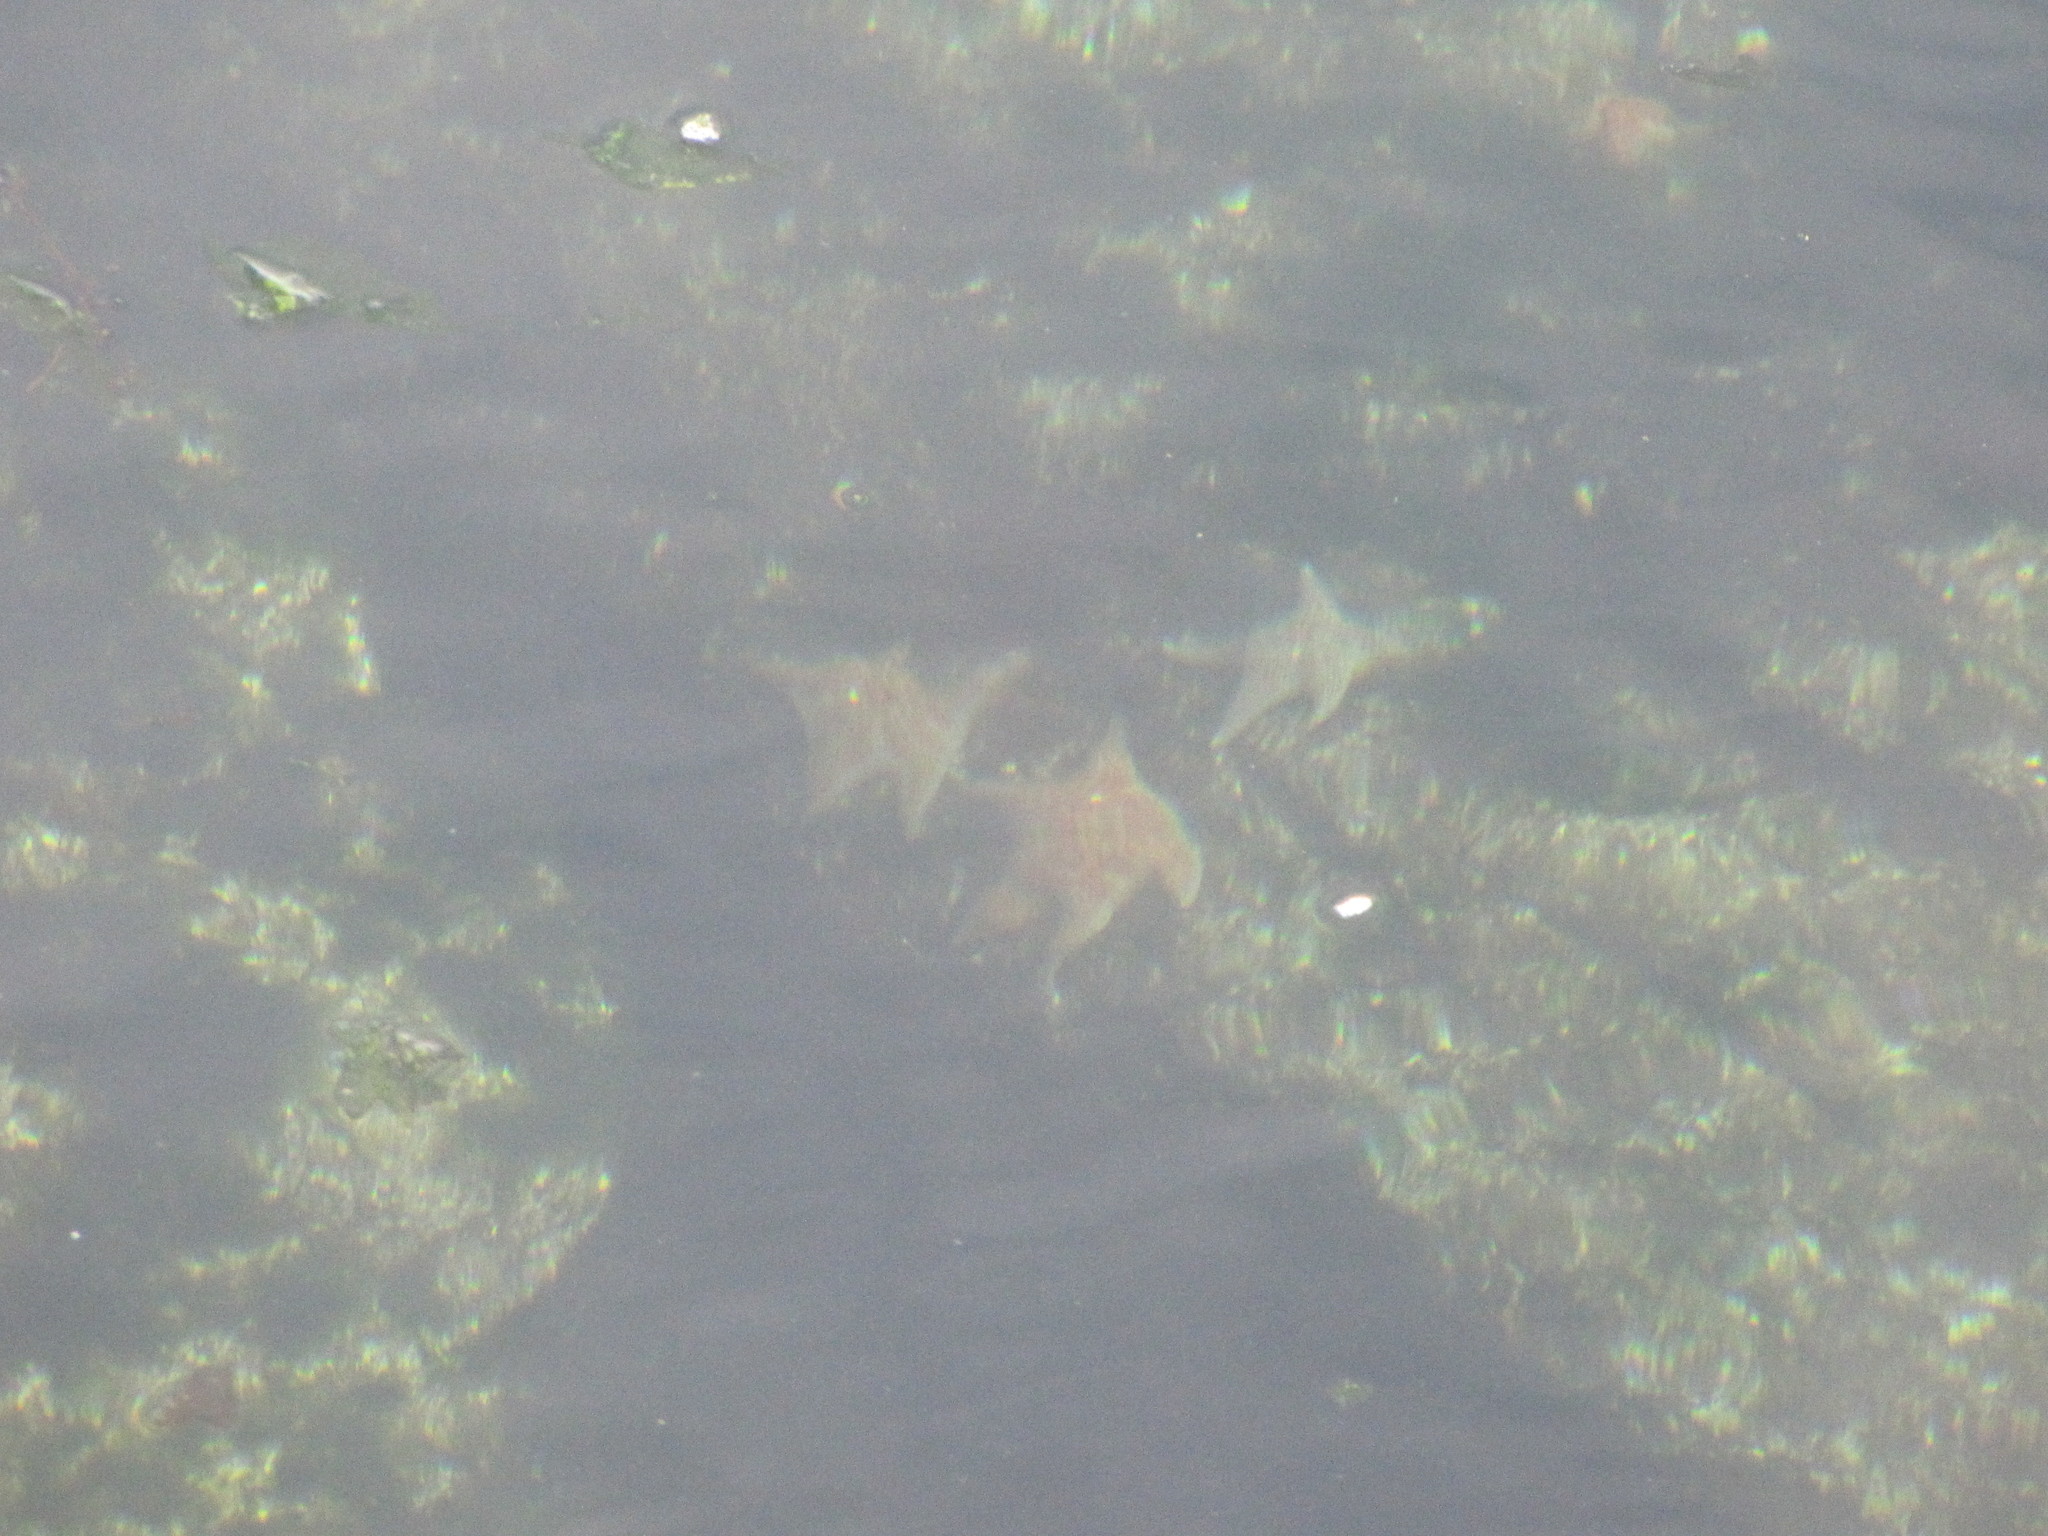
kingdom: Animalia
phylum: Echinodermata
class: Asteroidea
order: Valvatida
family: Asteropseidae
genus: Dermasterias
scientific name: Dermasterias imbricata
